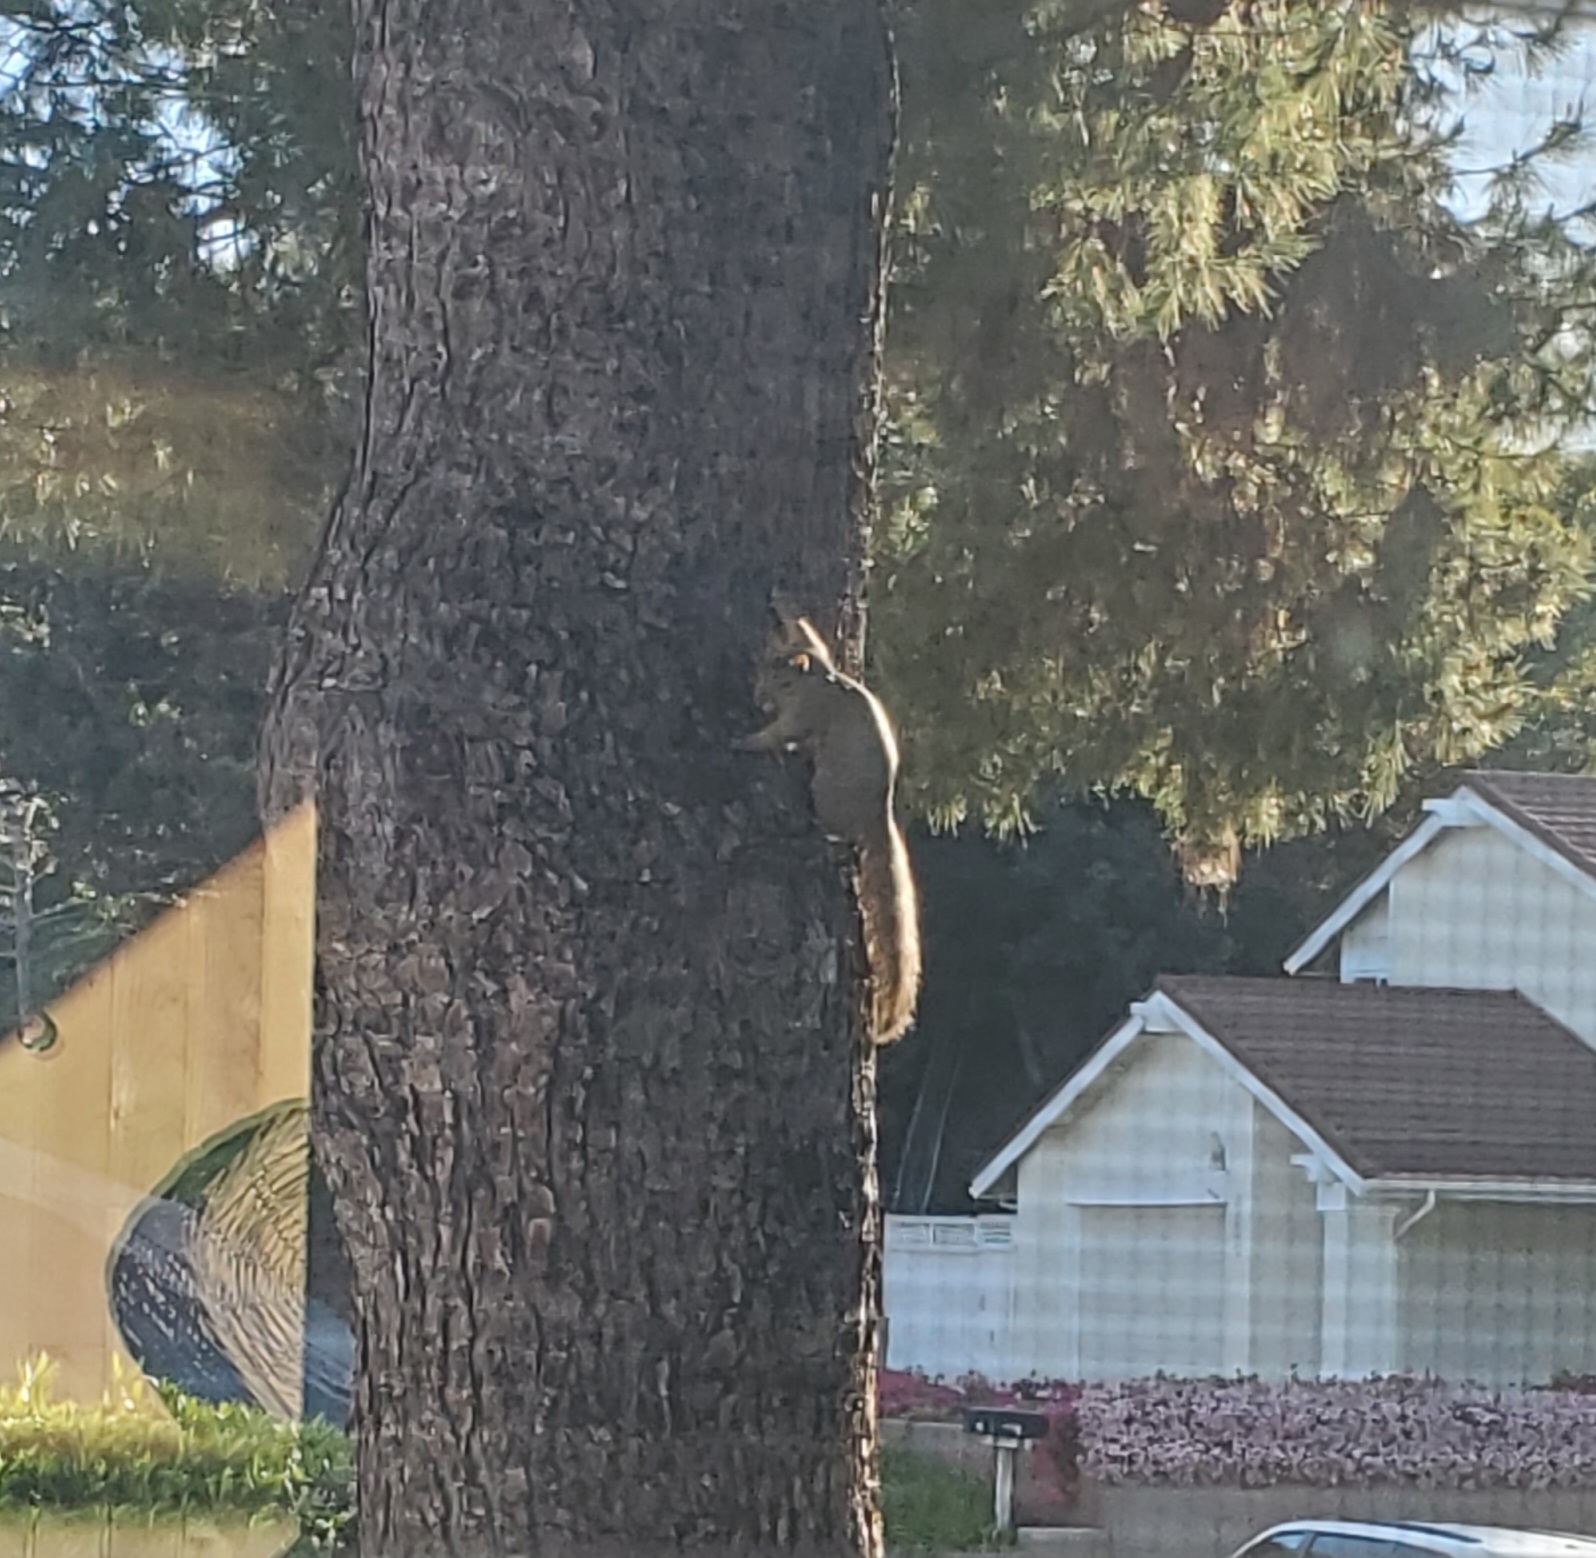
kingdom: Animalia
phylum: Chordata
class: Mammalia
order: Rodentia
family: Sciuridae
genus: Sciurus
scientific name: Sciurus niger
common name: Fox squirrel
